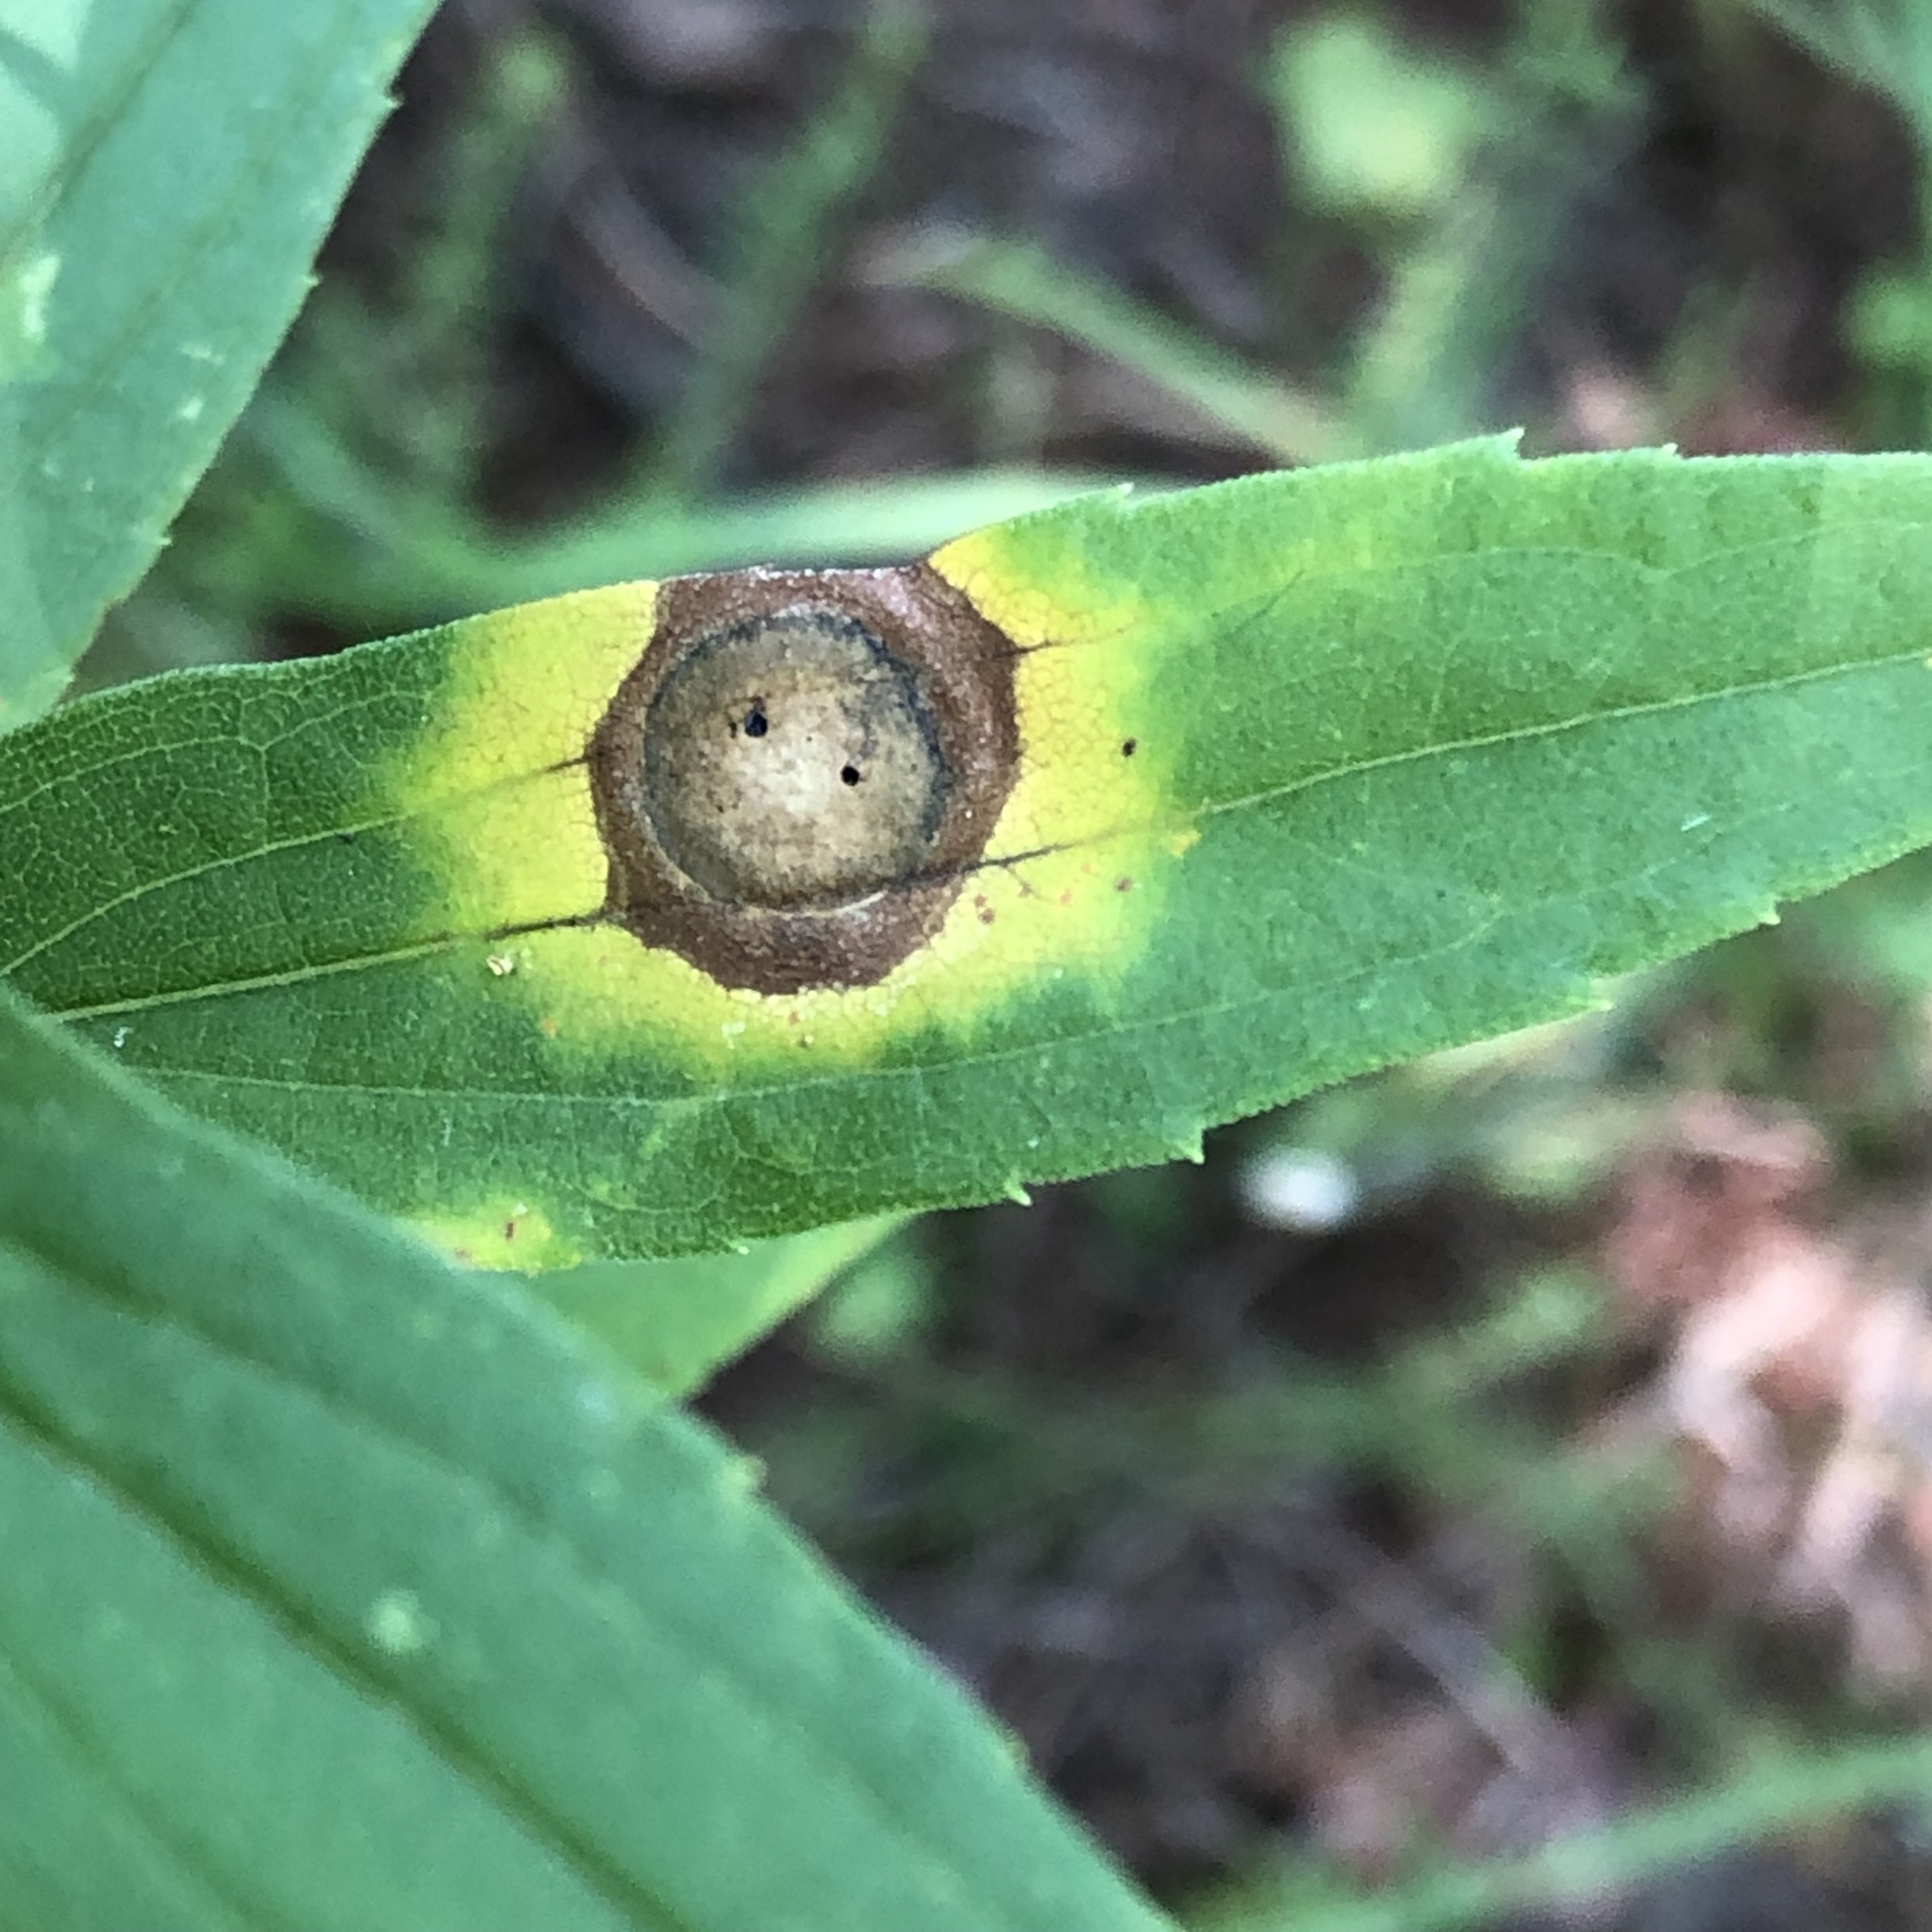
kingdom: Animalia
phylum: Arthropoda
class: Insecta
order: Diptera
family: Cecidomyiidae
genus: Asteromyia
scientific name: Asteromyia carbonifera
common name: Carbonifera goldenrod gall midge
